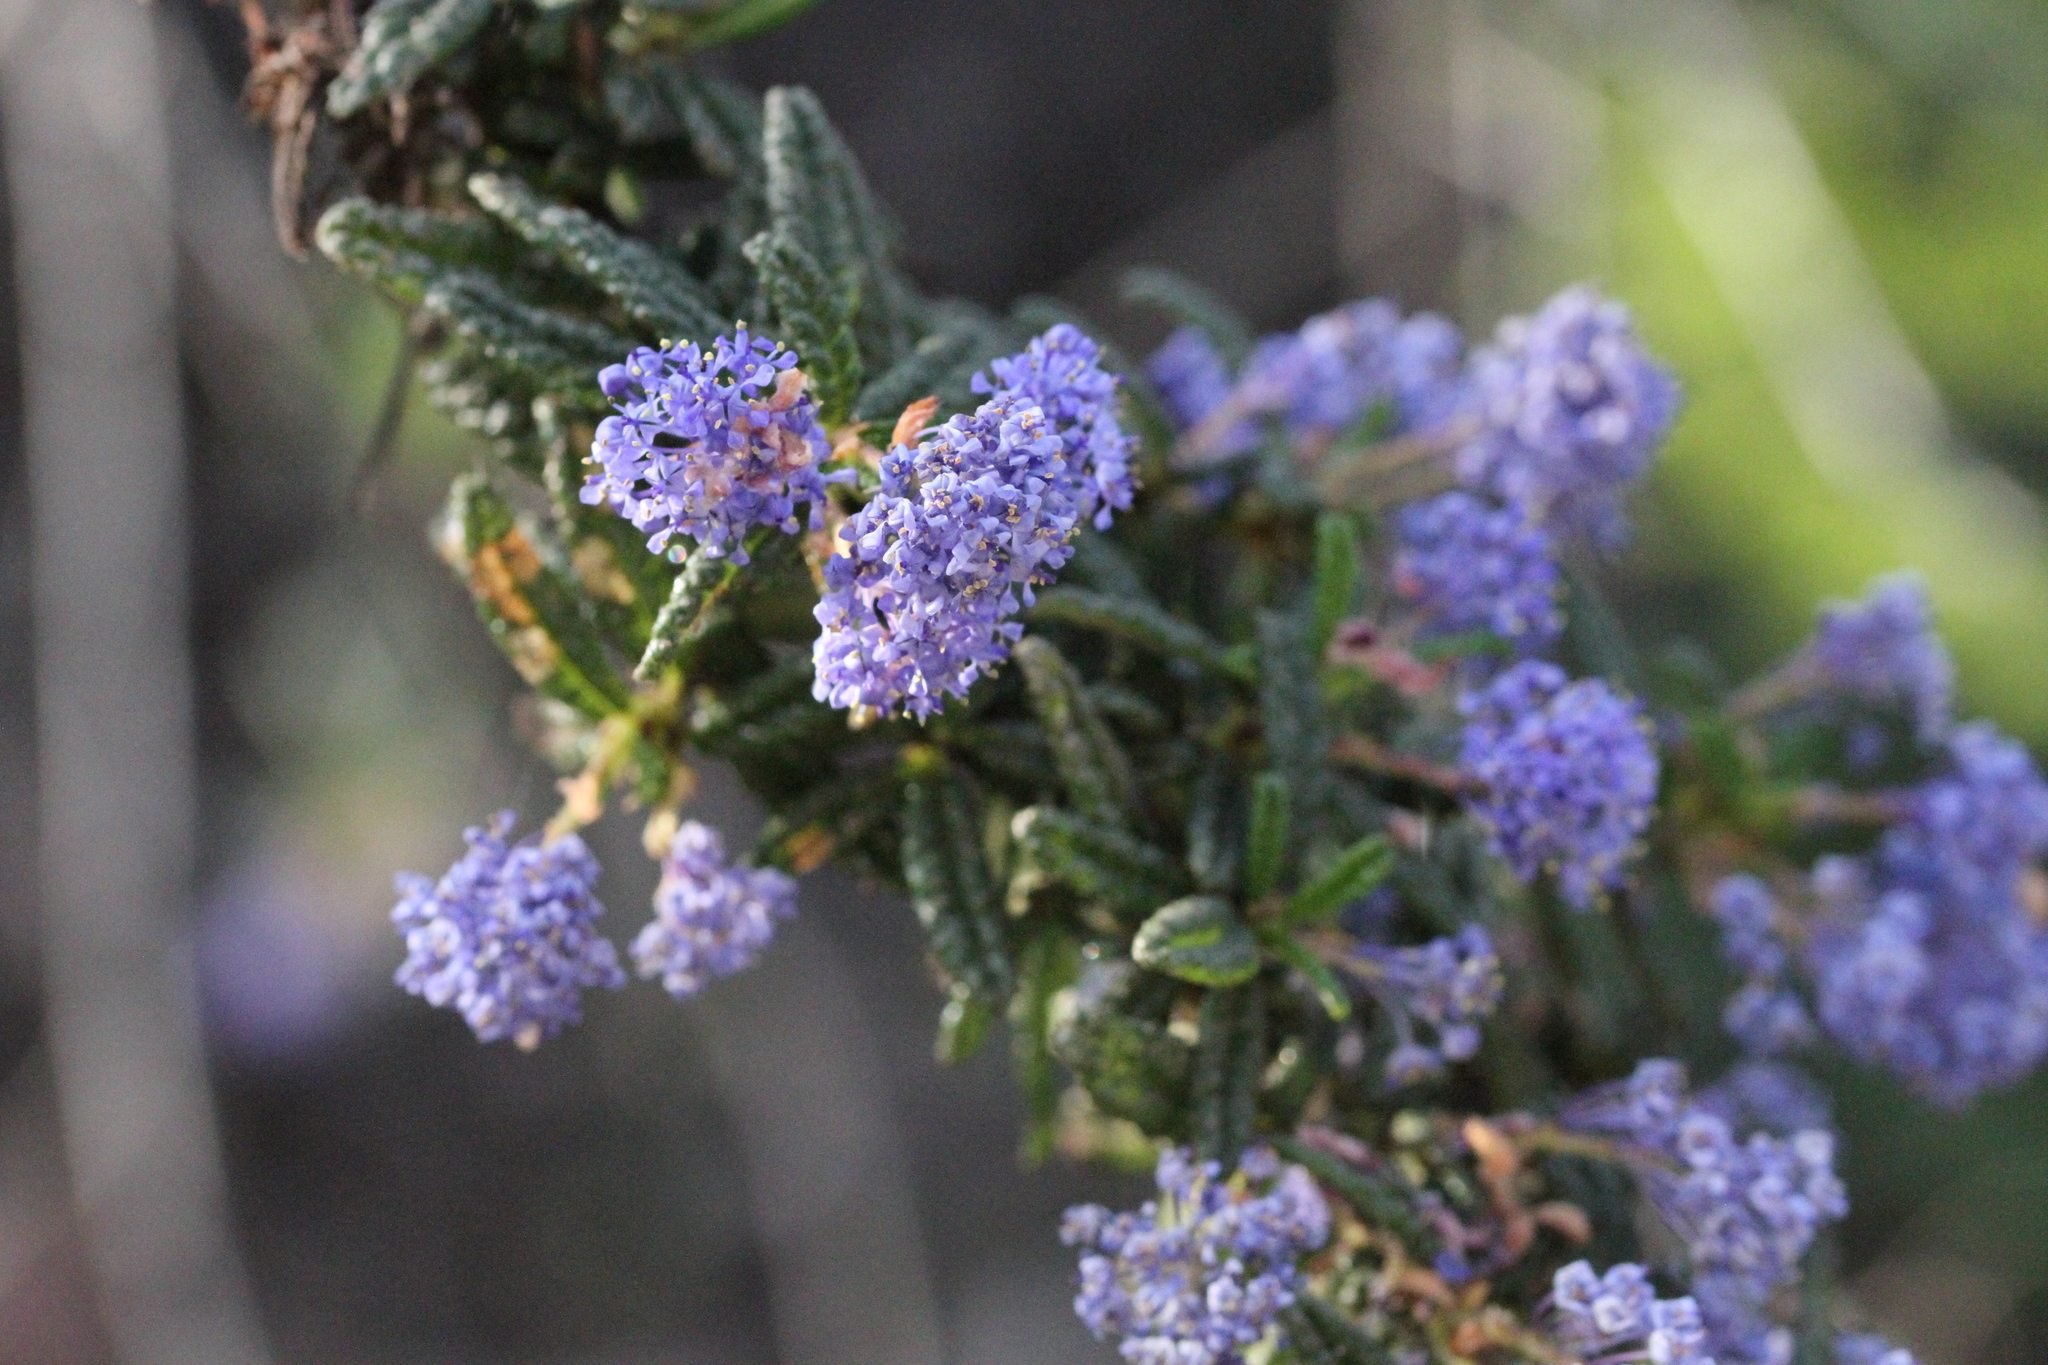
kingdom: Plantae
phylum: Tracheophyta
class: Magnoliopsida
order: Rosales
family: Rhamnaceae
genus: Ceanothus
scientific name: Ceanothus papillosus
